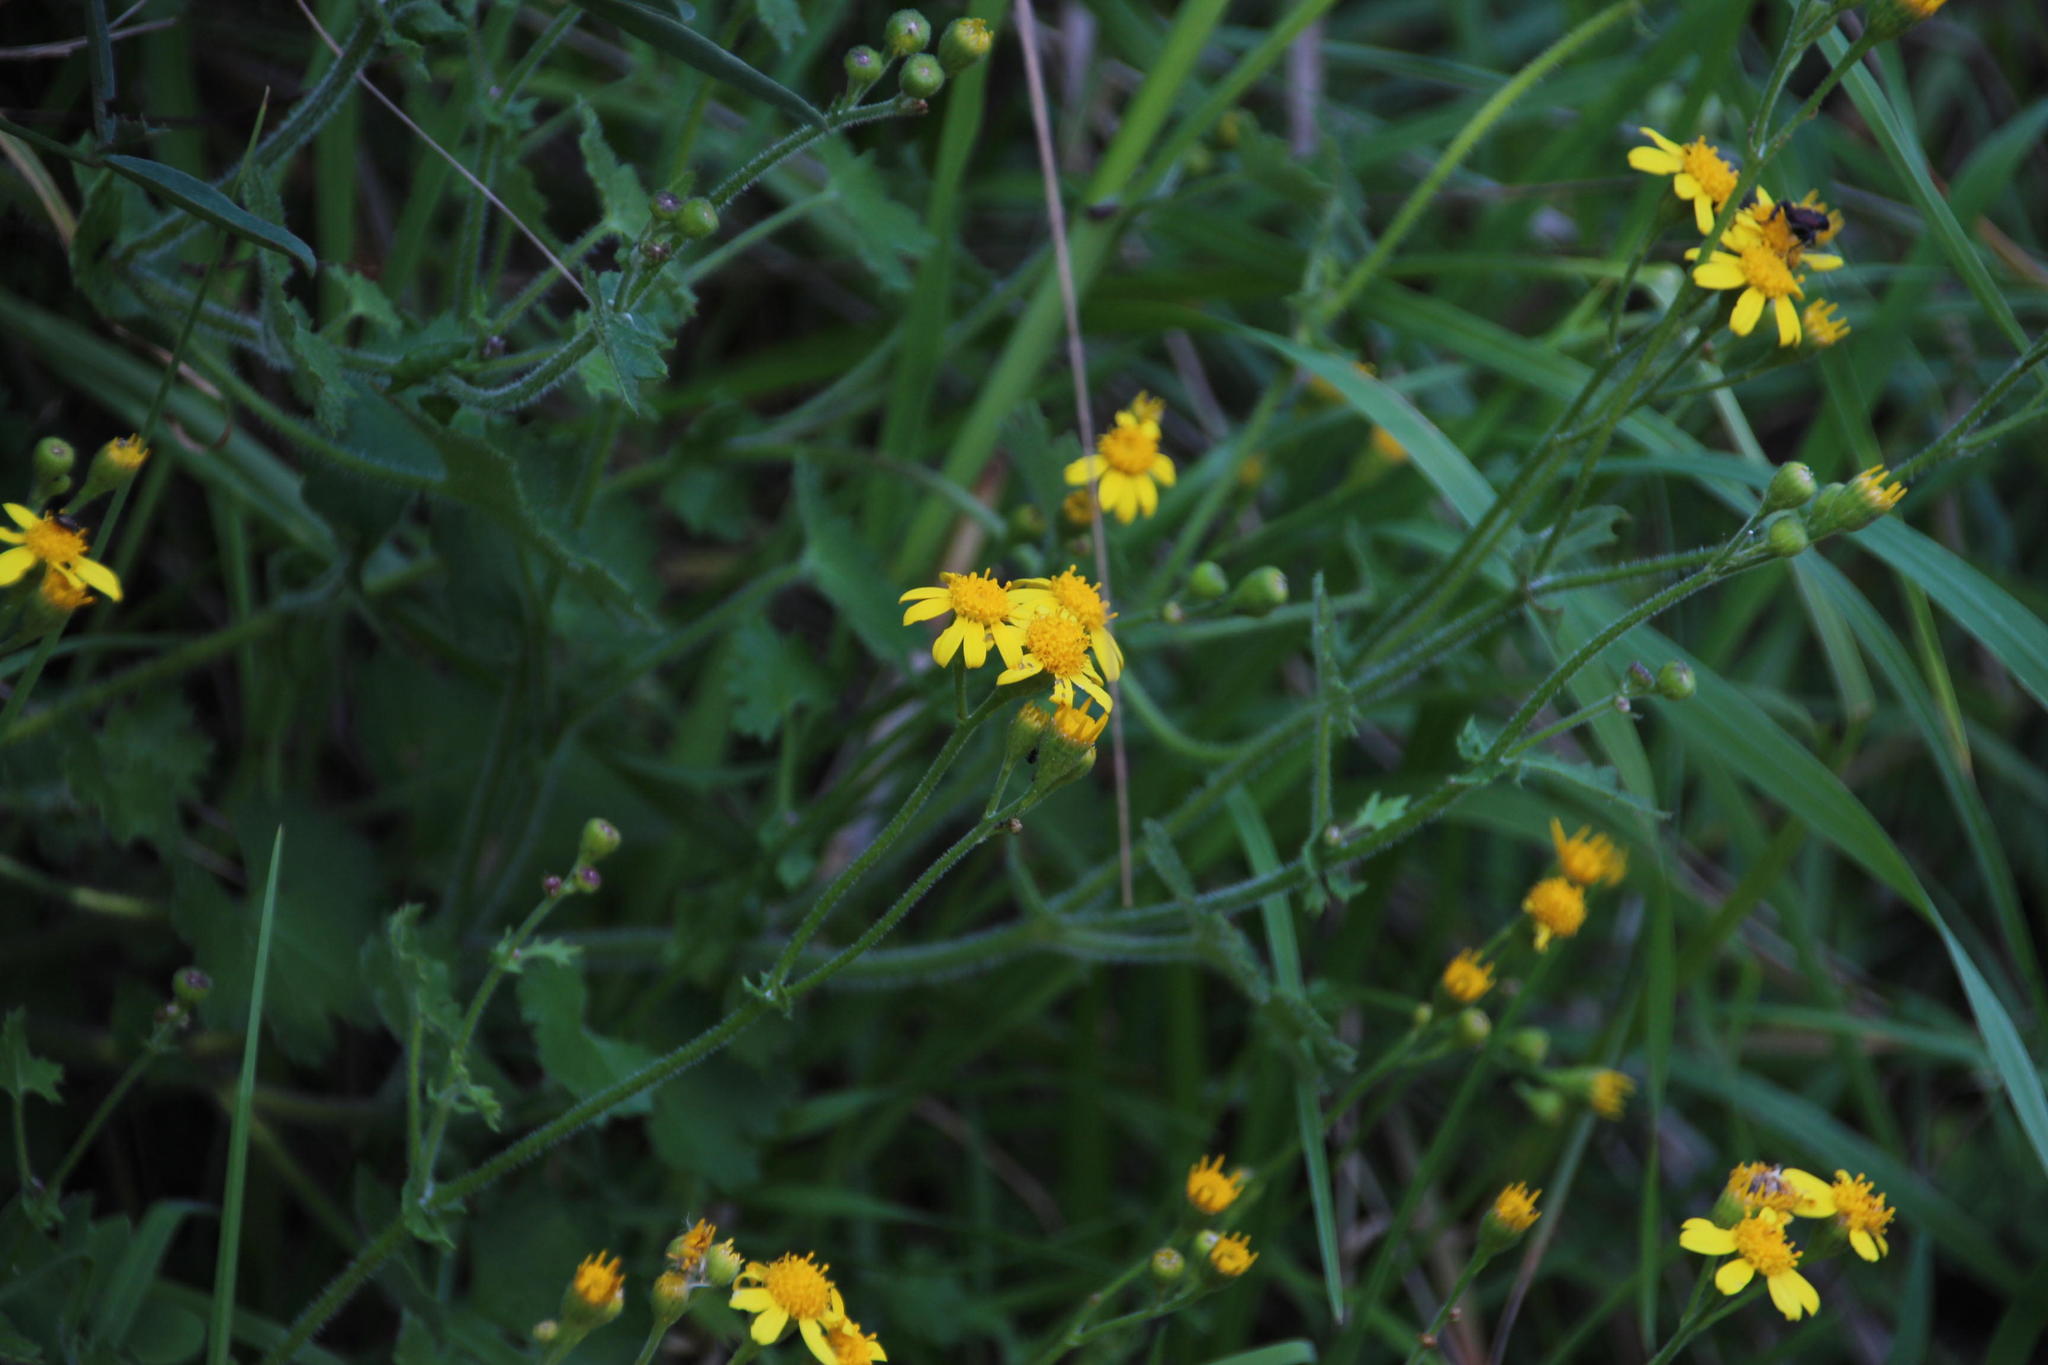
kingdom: Plantae
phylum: Tracheophyta
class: Magnoliopsida
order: Asterales
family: Asteraceae
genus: Cineraria
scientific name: Cineraria geifolia
